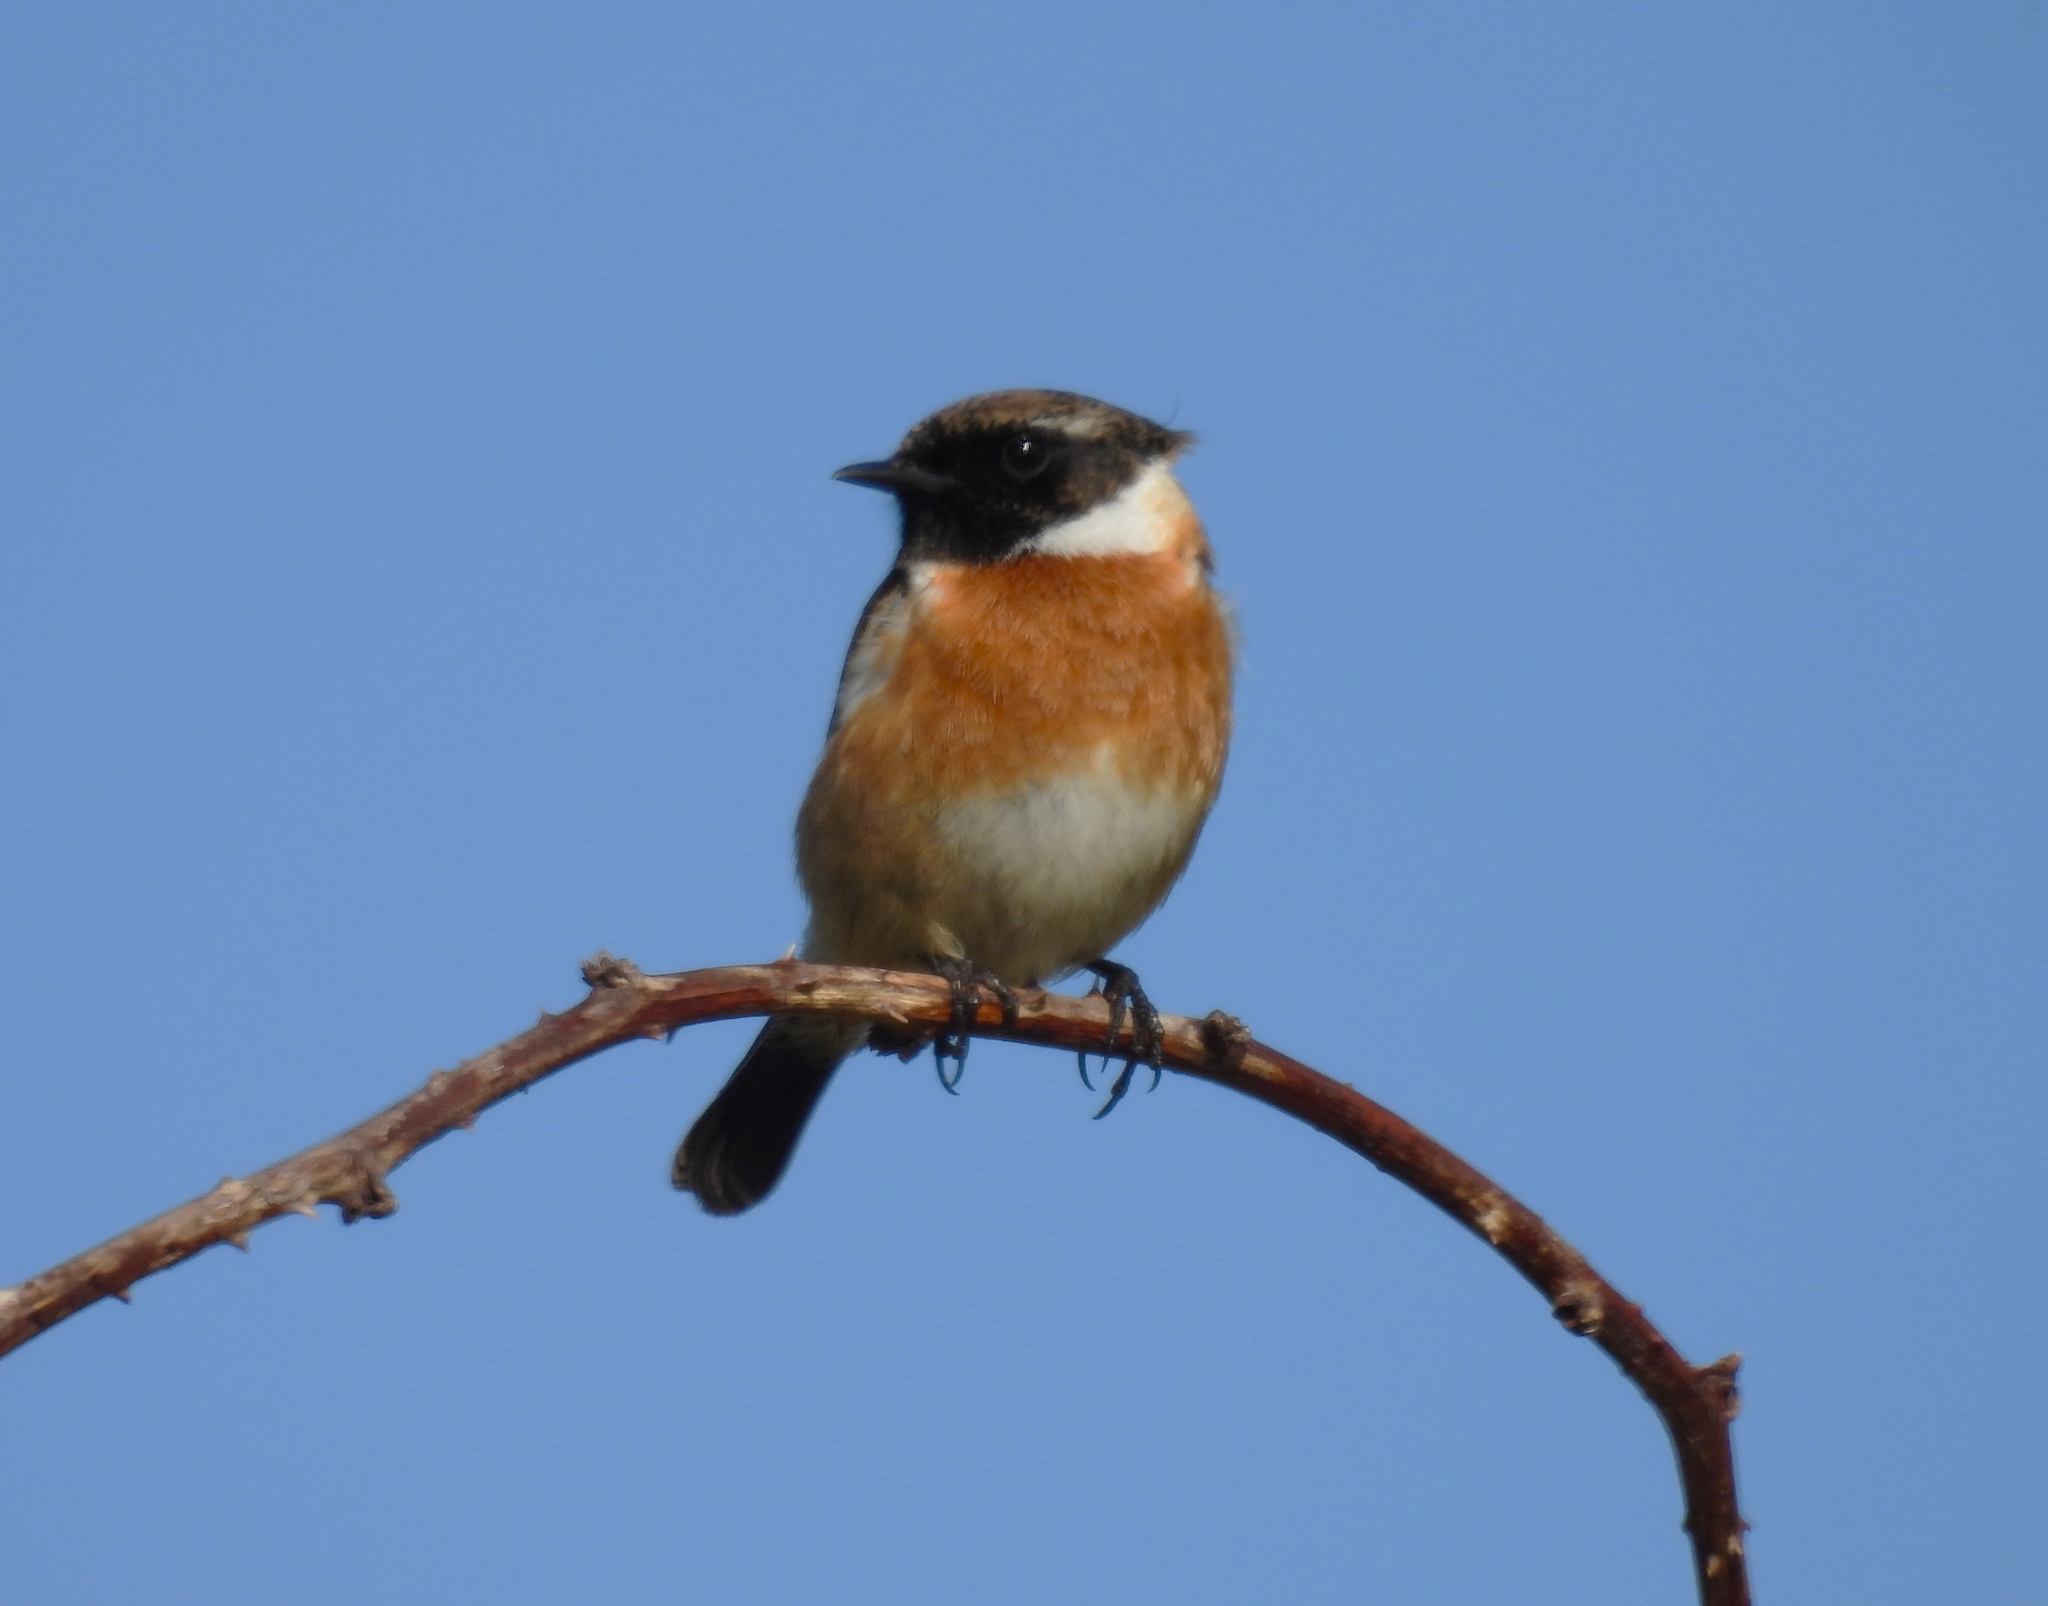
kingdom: Animalia
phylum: Chordata
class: Aves
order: Passeriformes
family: Muscicapidae
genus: Saxicola
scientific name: Saxicola rubicola
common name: European stonechat
